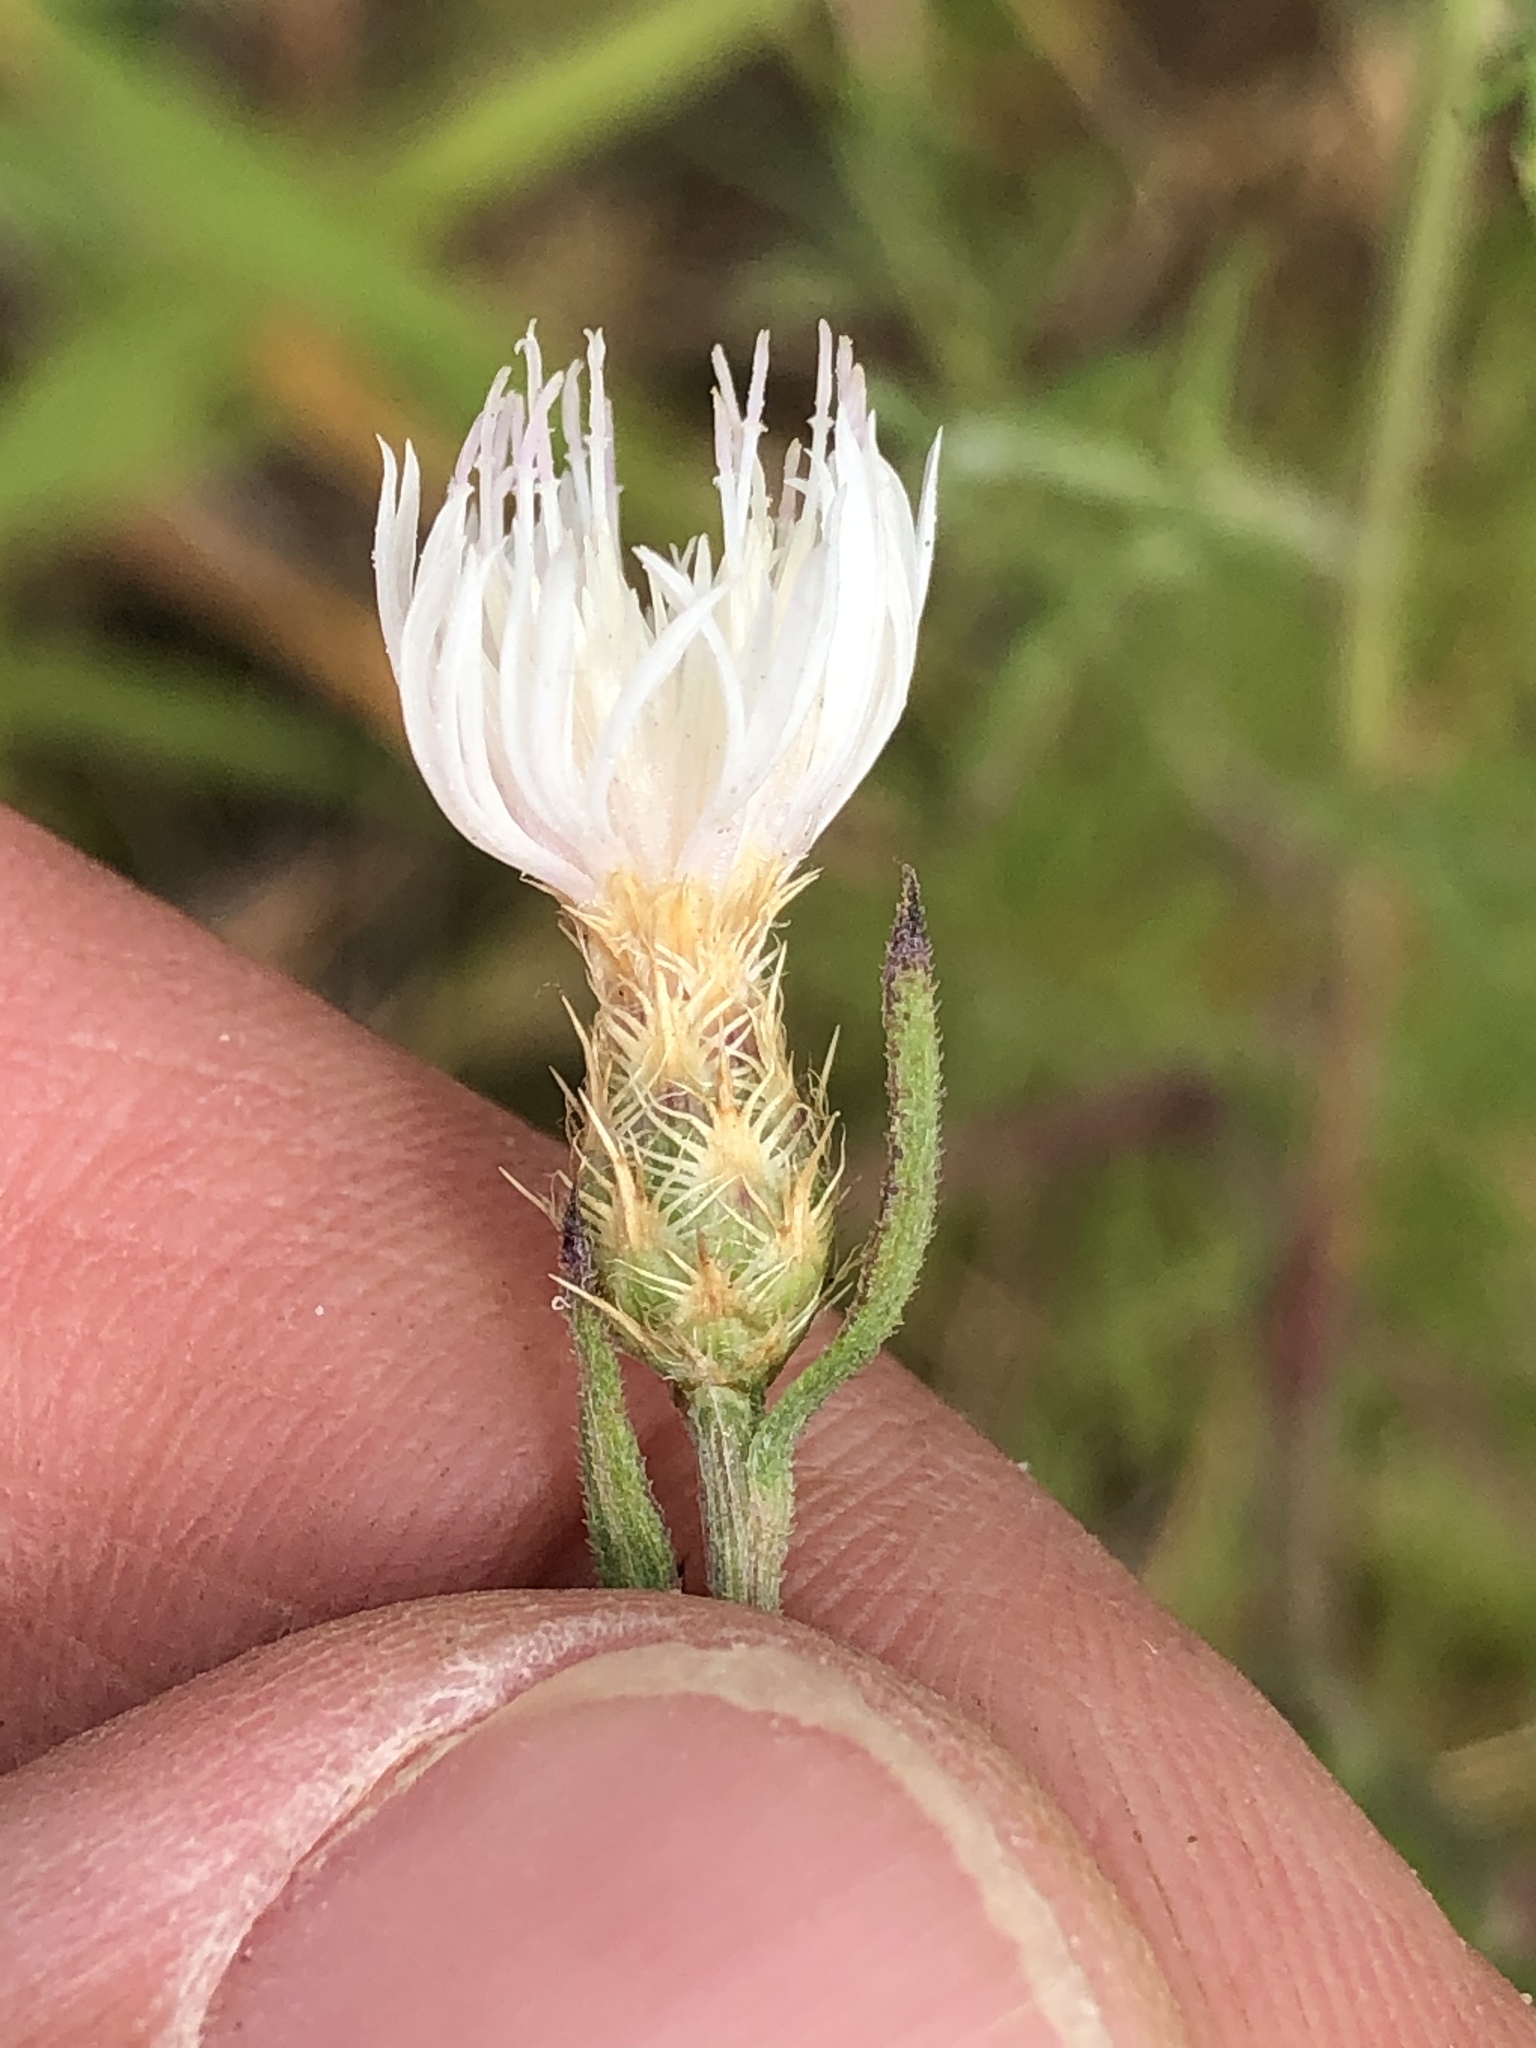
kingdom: Plantae
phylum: Tracheophyta
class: Magnoliopsida
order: Asterales
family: Asteraceae
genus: Centaurea
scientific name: Centaurea diffusa
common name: Diffuse knapweed
